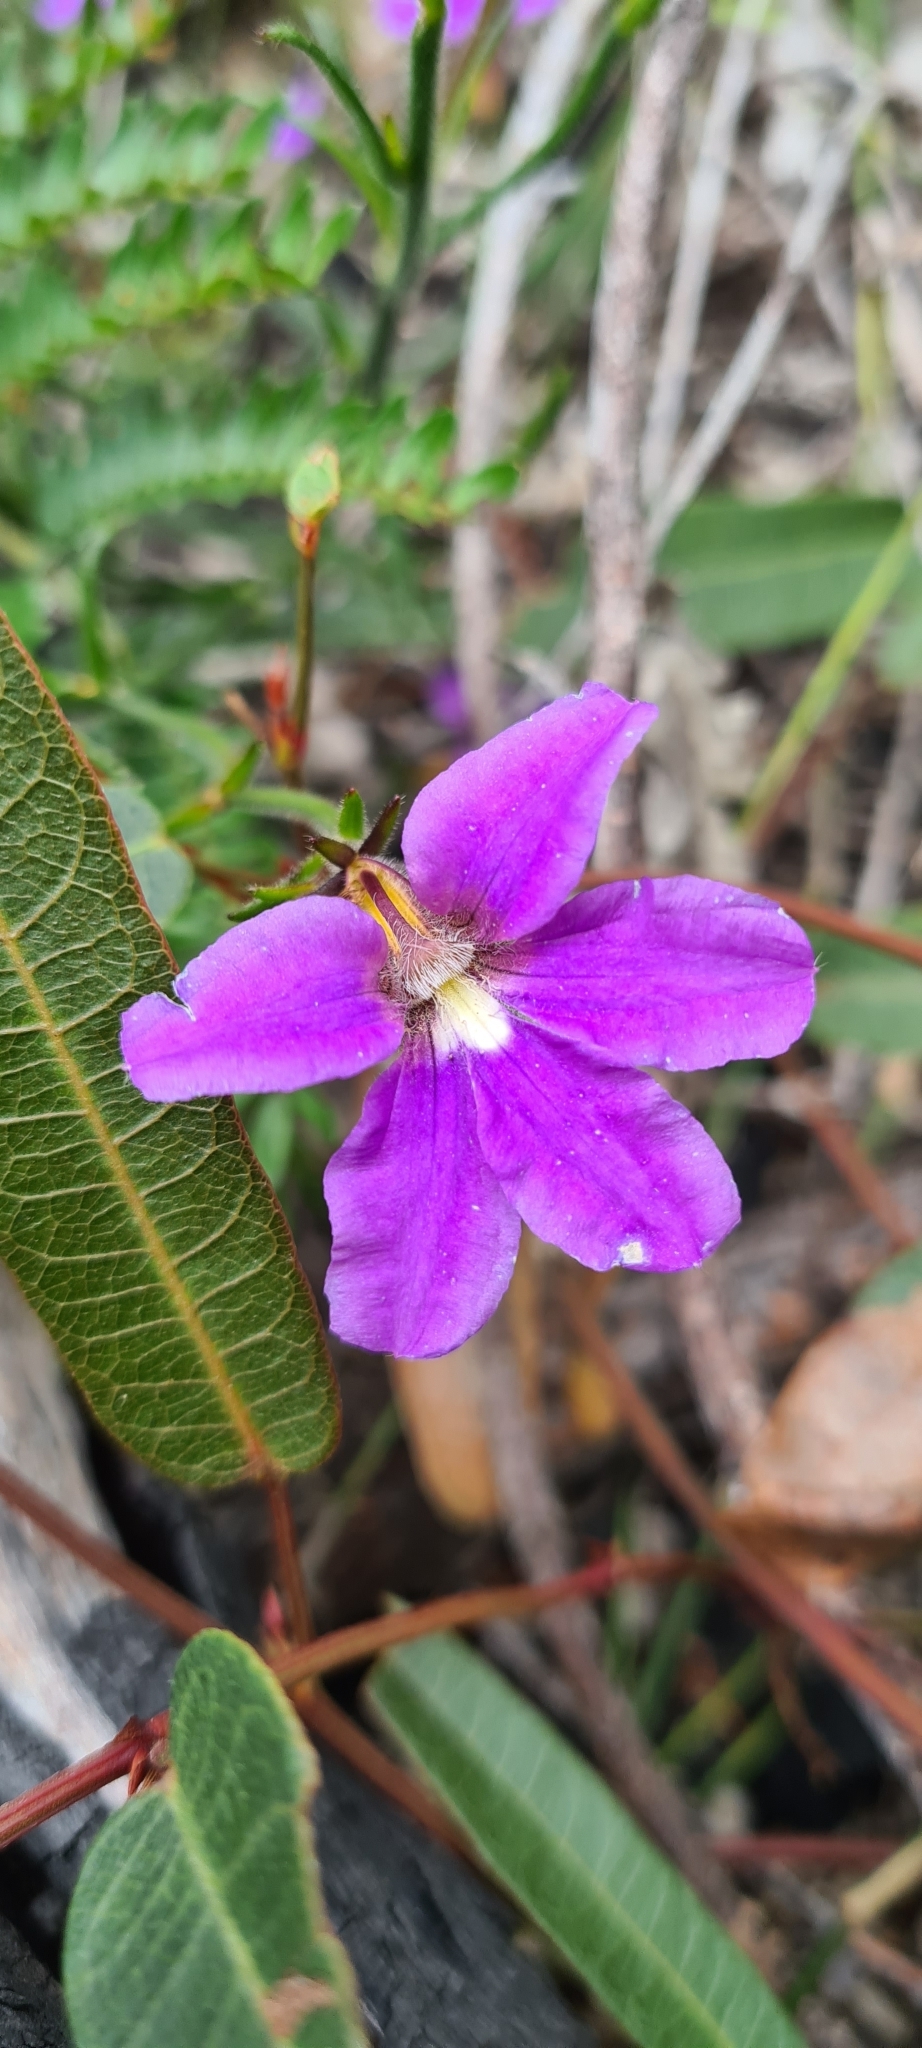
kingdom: Plantae
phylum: Tracheophyta
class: Magnoliopsida
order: Asterales
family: Goodeniaceae
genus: Scaevola
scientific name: Scaevola ramosissima
